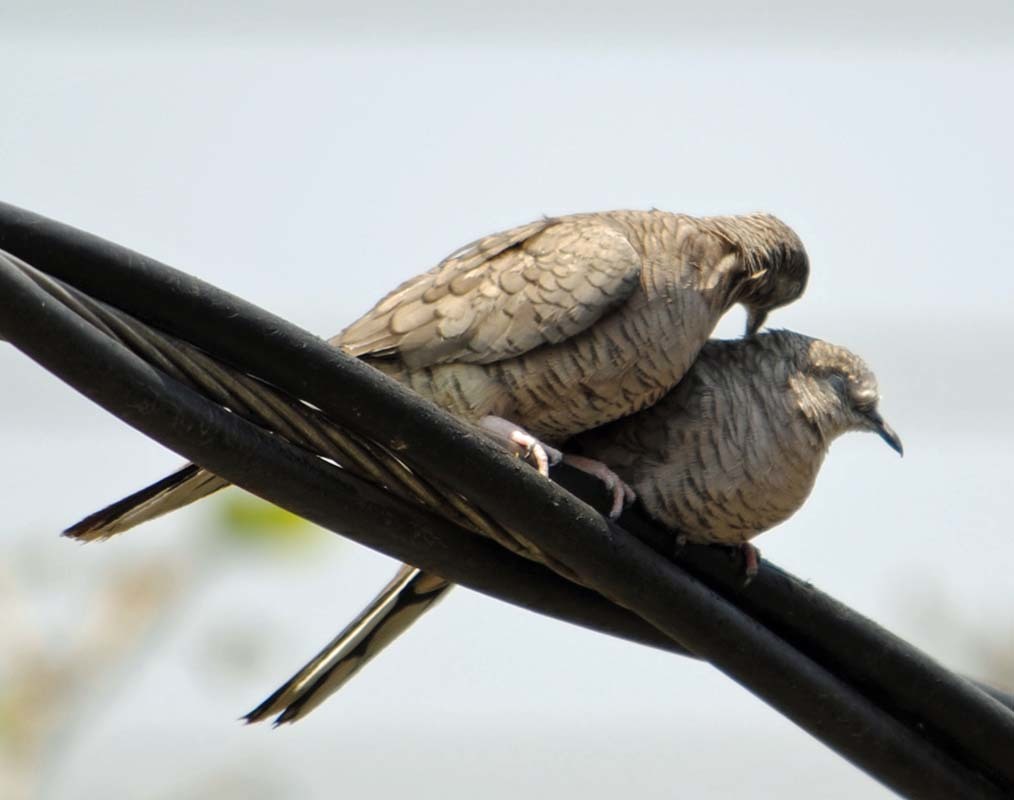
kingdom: Animalia
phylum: Chordata
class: Aves
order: Columbiformes
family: Columbidae
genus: Columbina
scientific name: Columbina inca
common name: Inca dove
